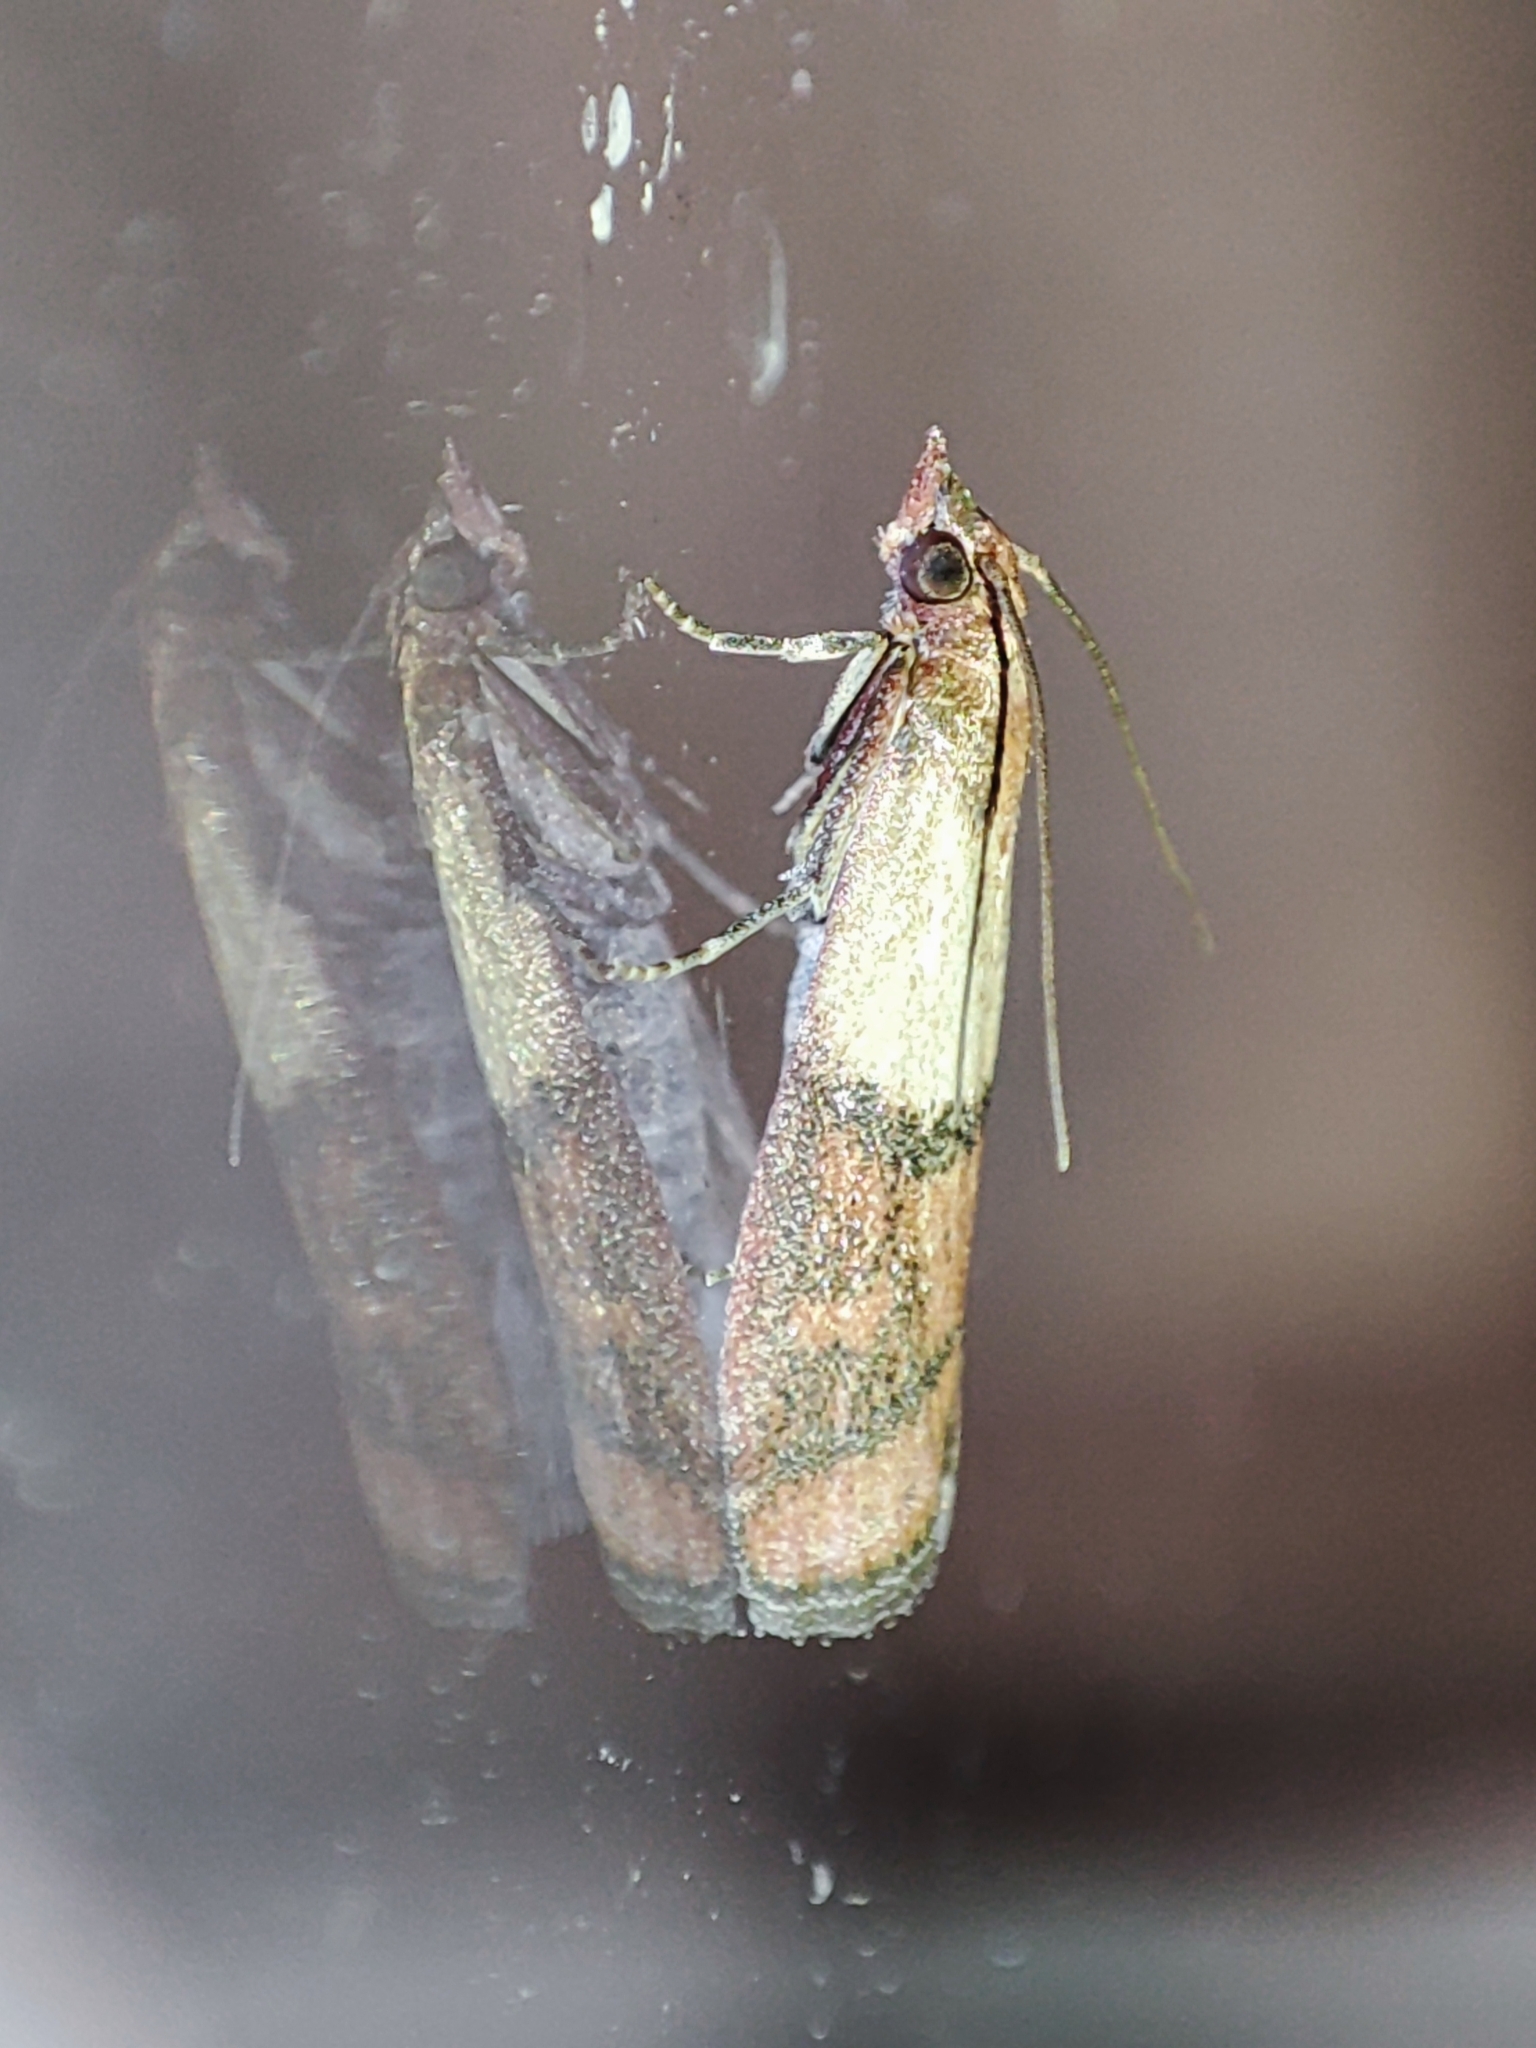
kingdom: Animalia
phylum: Arthropoda
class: Insecta
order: Lepidoptera
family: Pyralidae
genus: Plodia
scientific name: Plodia interpunctella
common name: Indian meal moth
